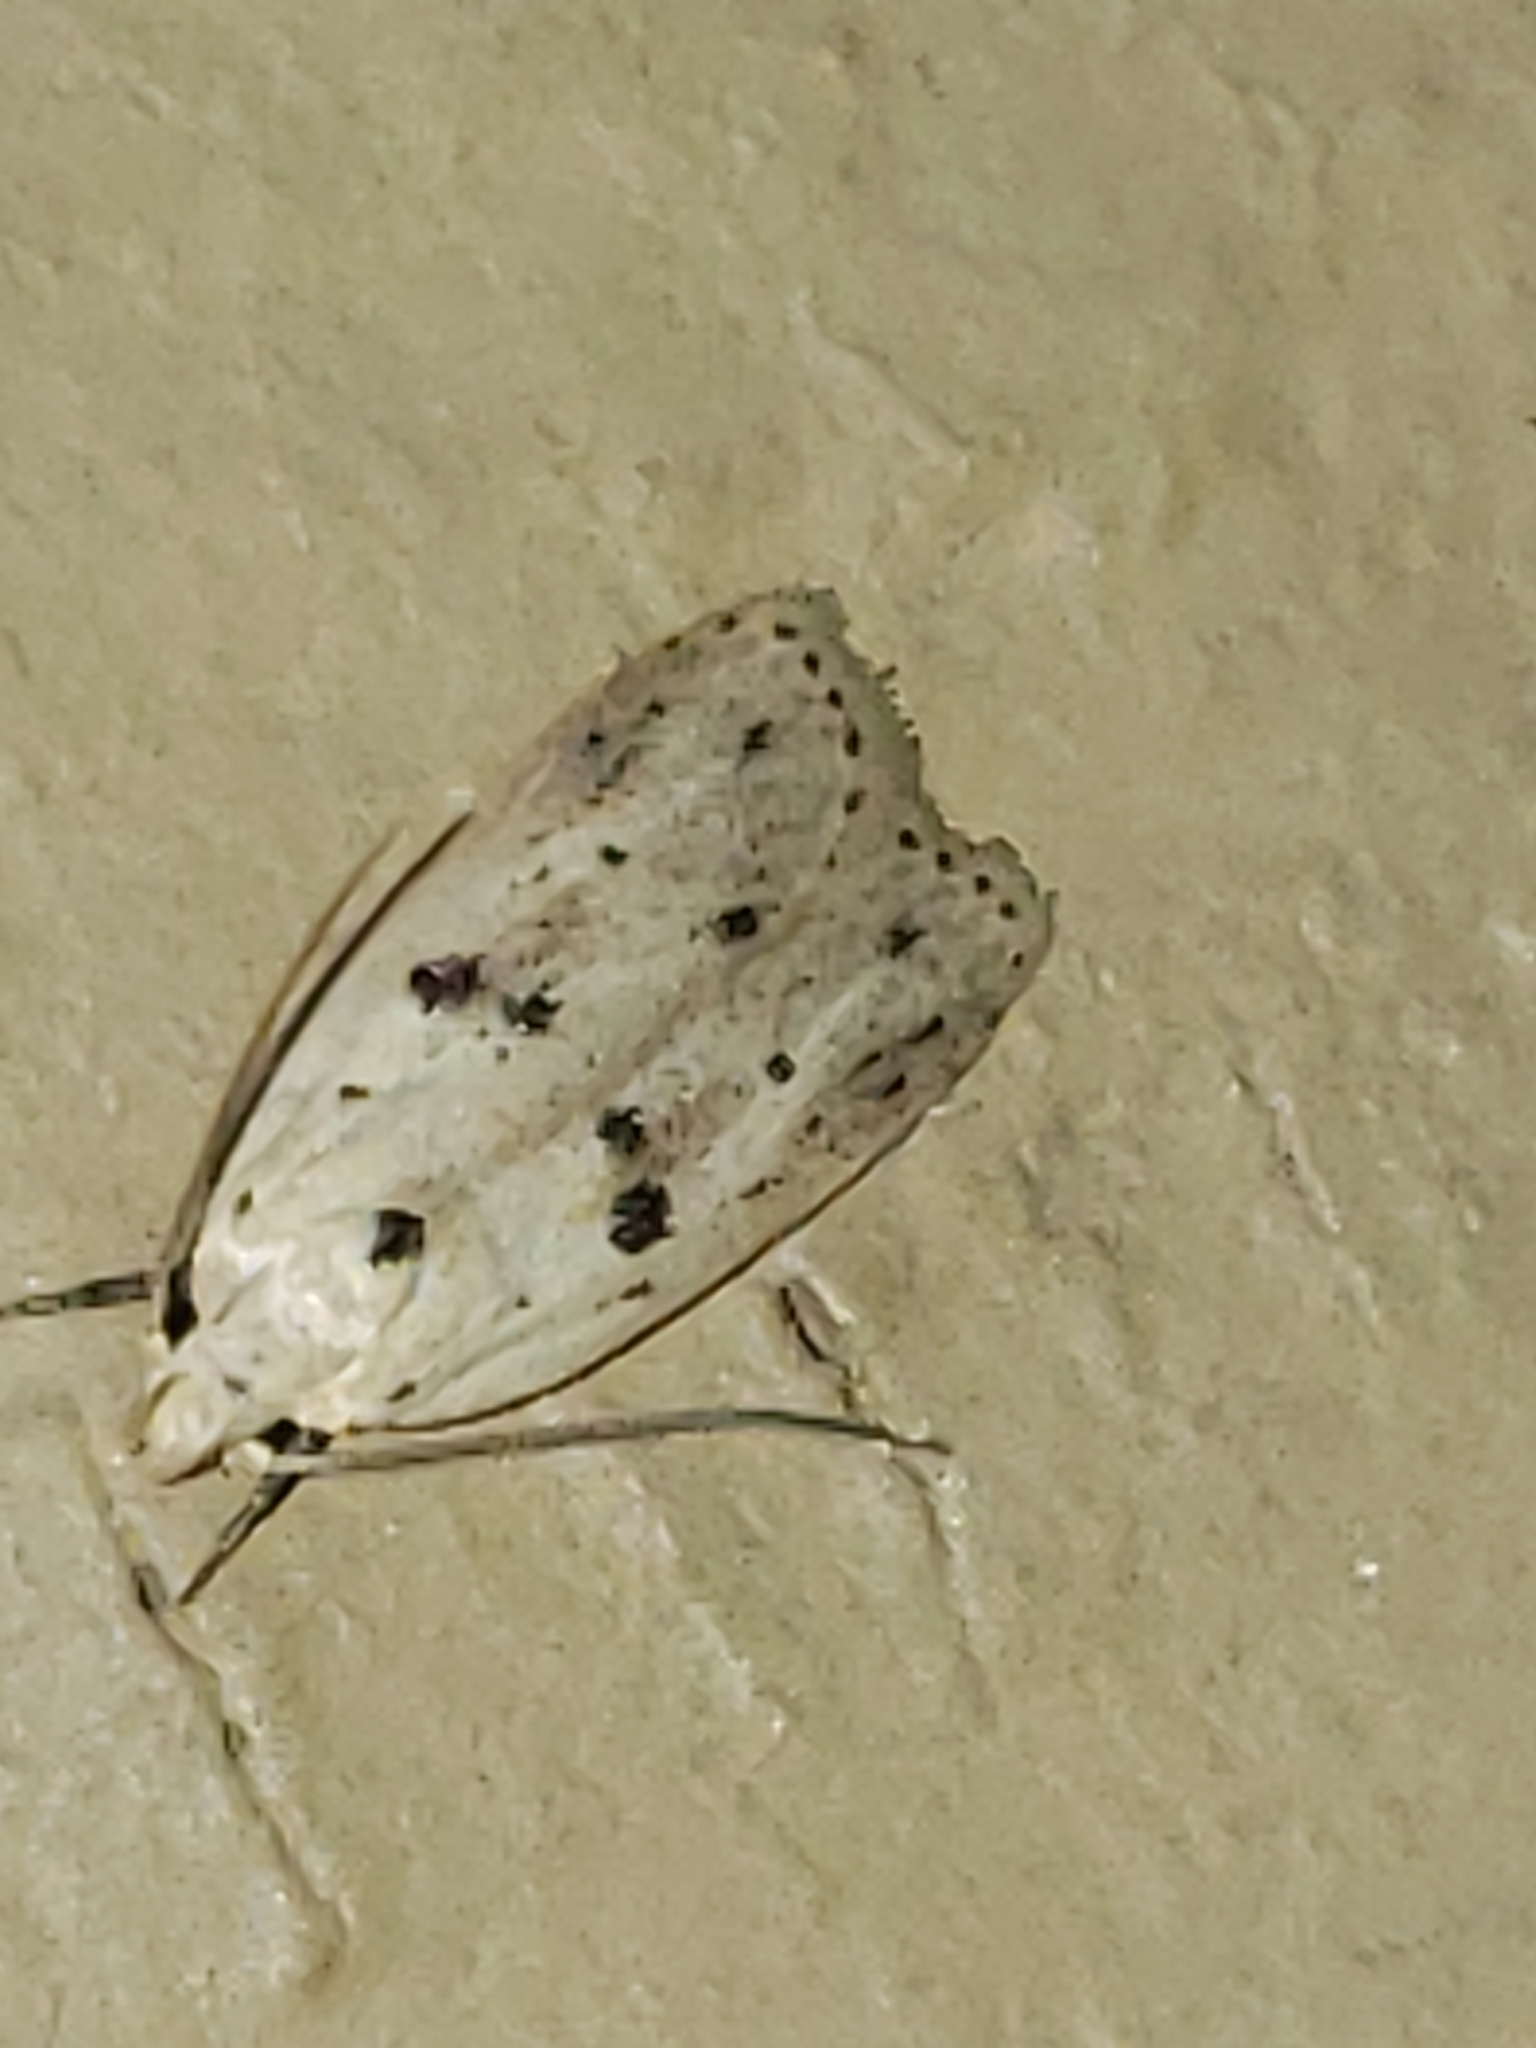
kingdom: Animalia
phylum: Arthropoda
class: Insecta
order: Lepidoptera
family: Peleopodidae
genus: Scythropiodes
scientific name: Scythropiodes issikii
